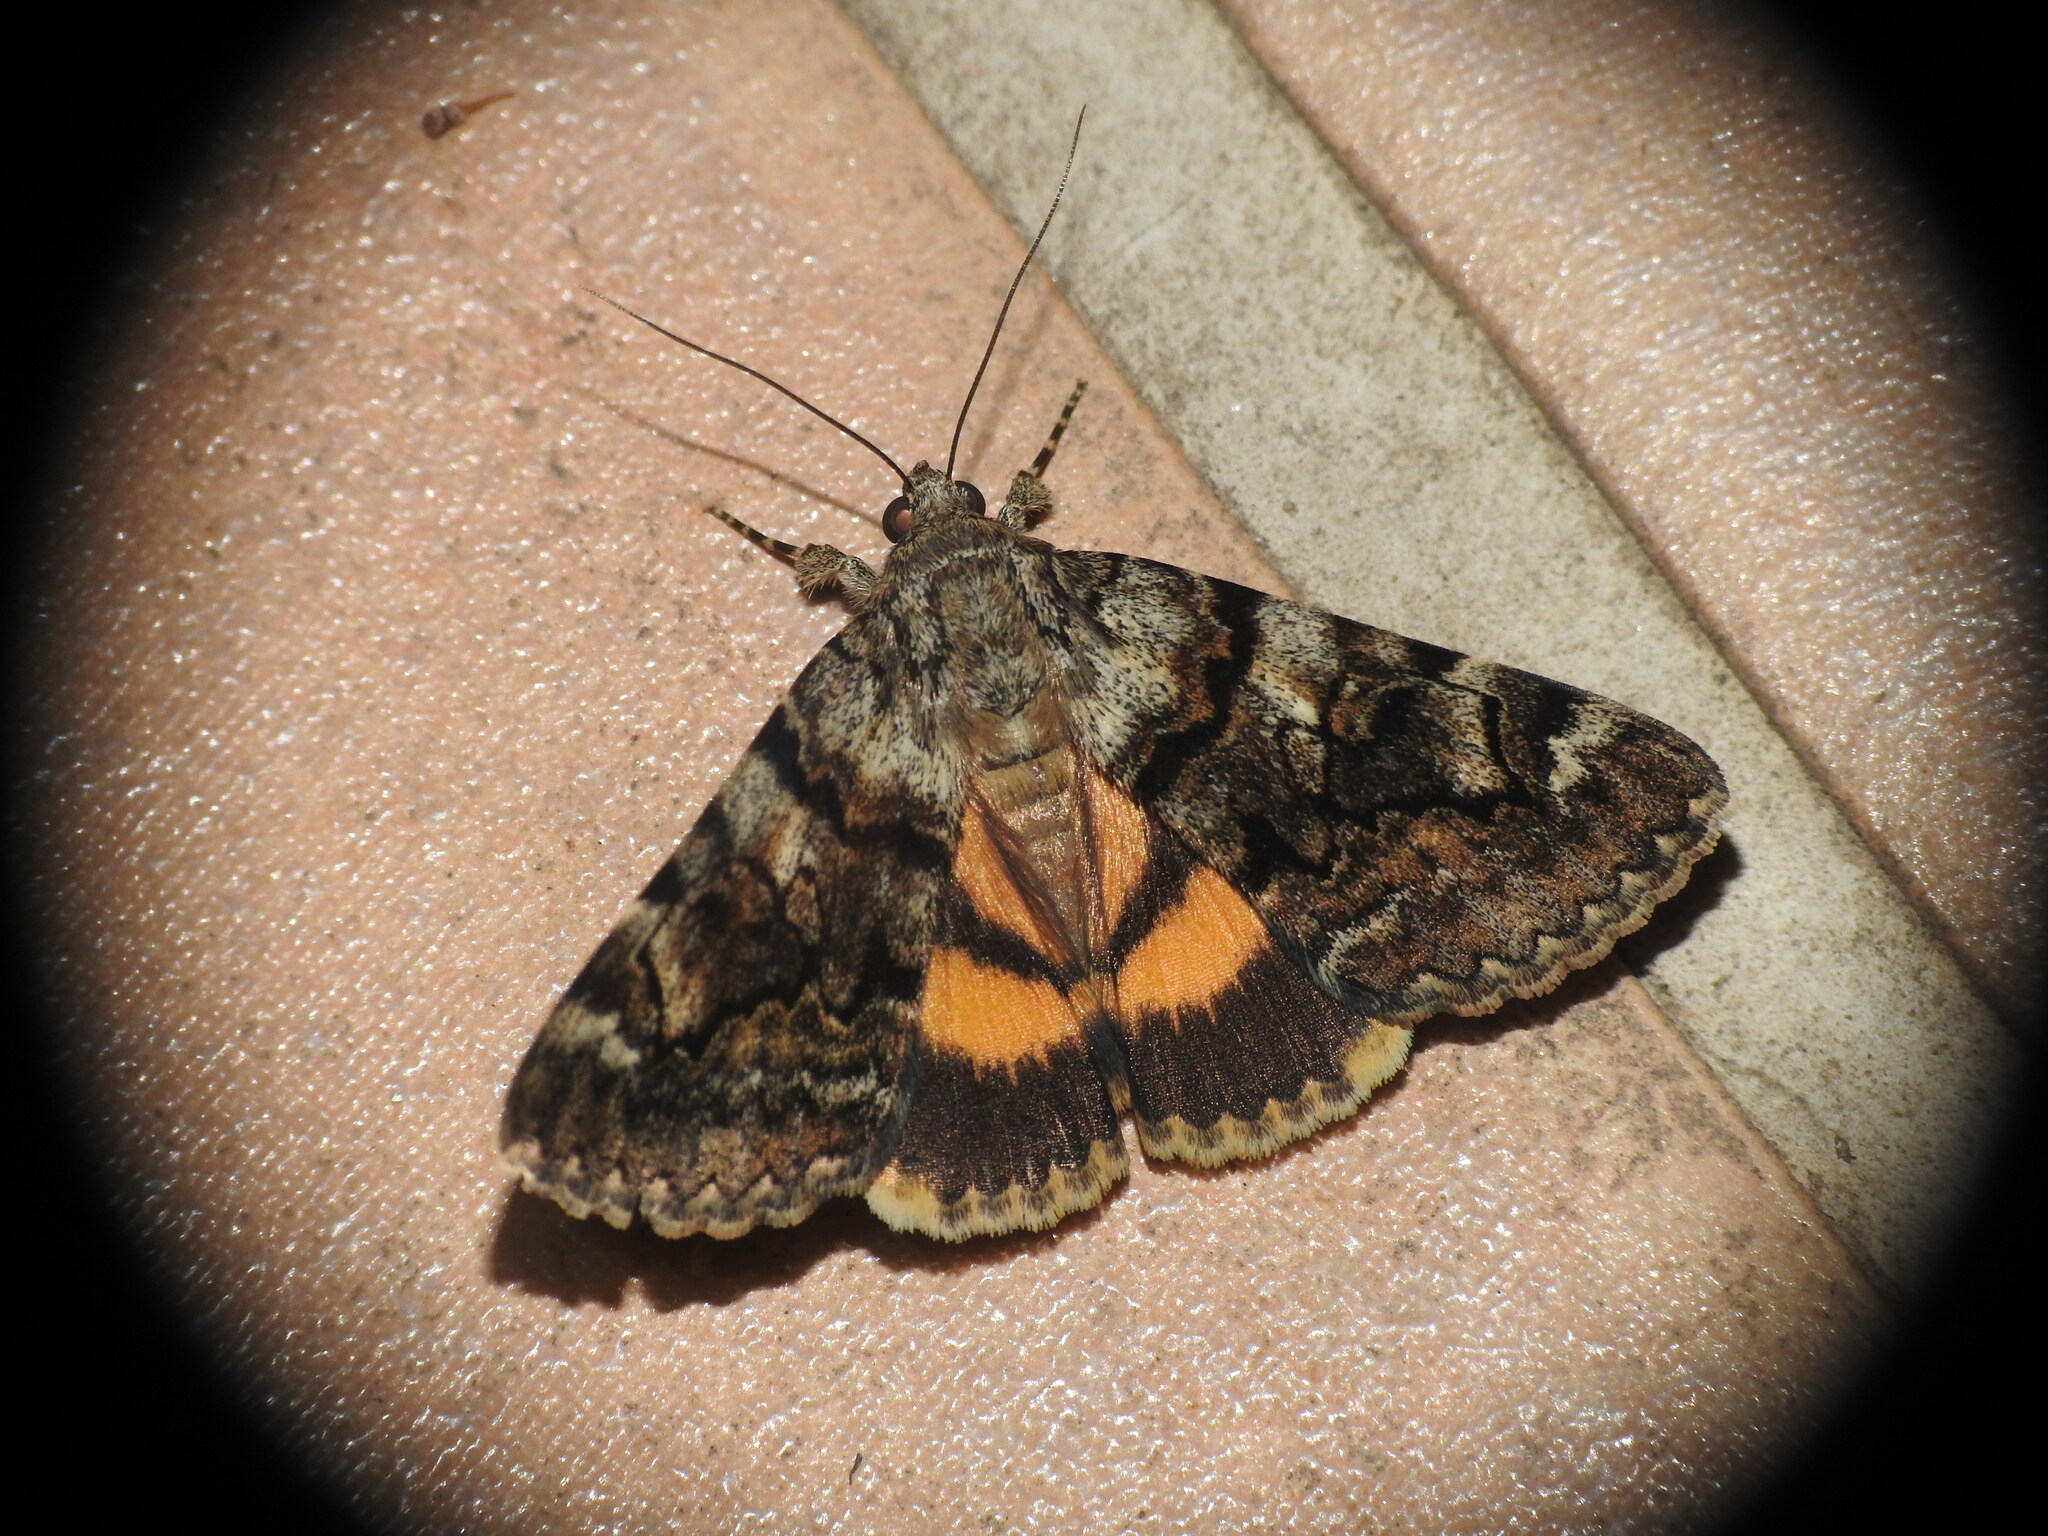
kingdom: Animalia
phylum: Arthropoda
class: Insecta
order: Lepidoptera
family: Erebidae
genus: Catocala
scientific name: Catocala nymphagoga
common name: Oak yellow underwing
